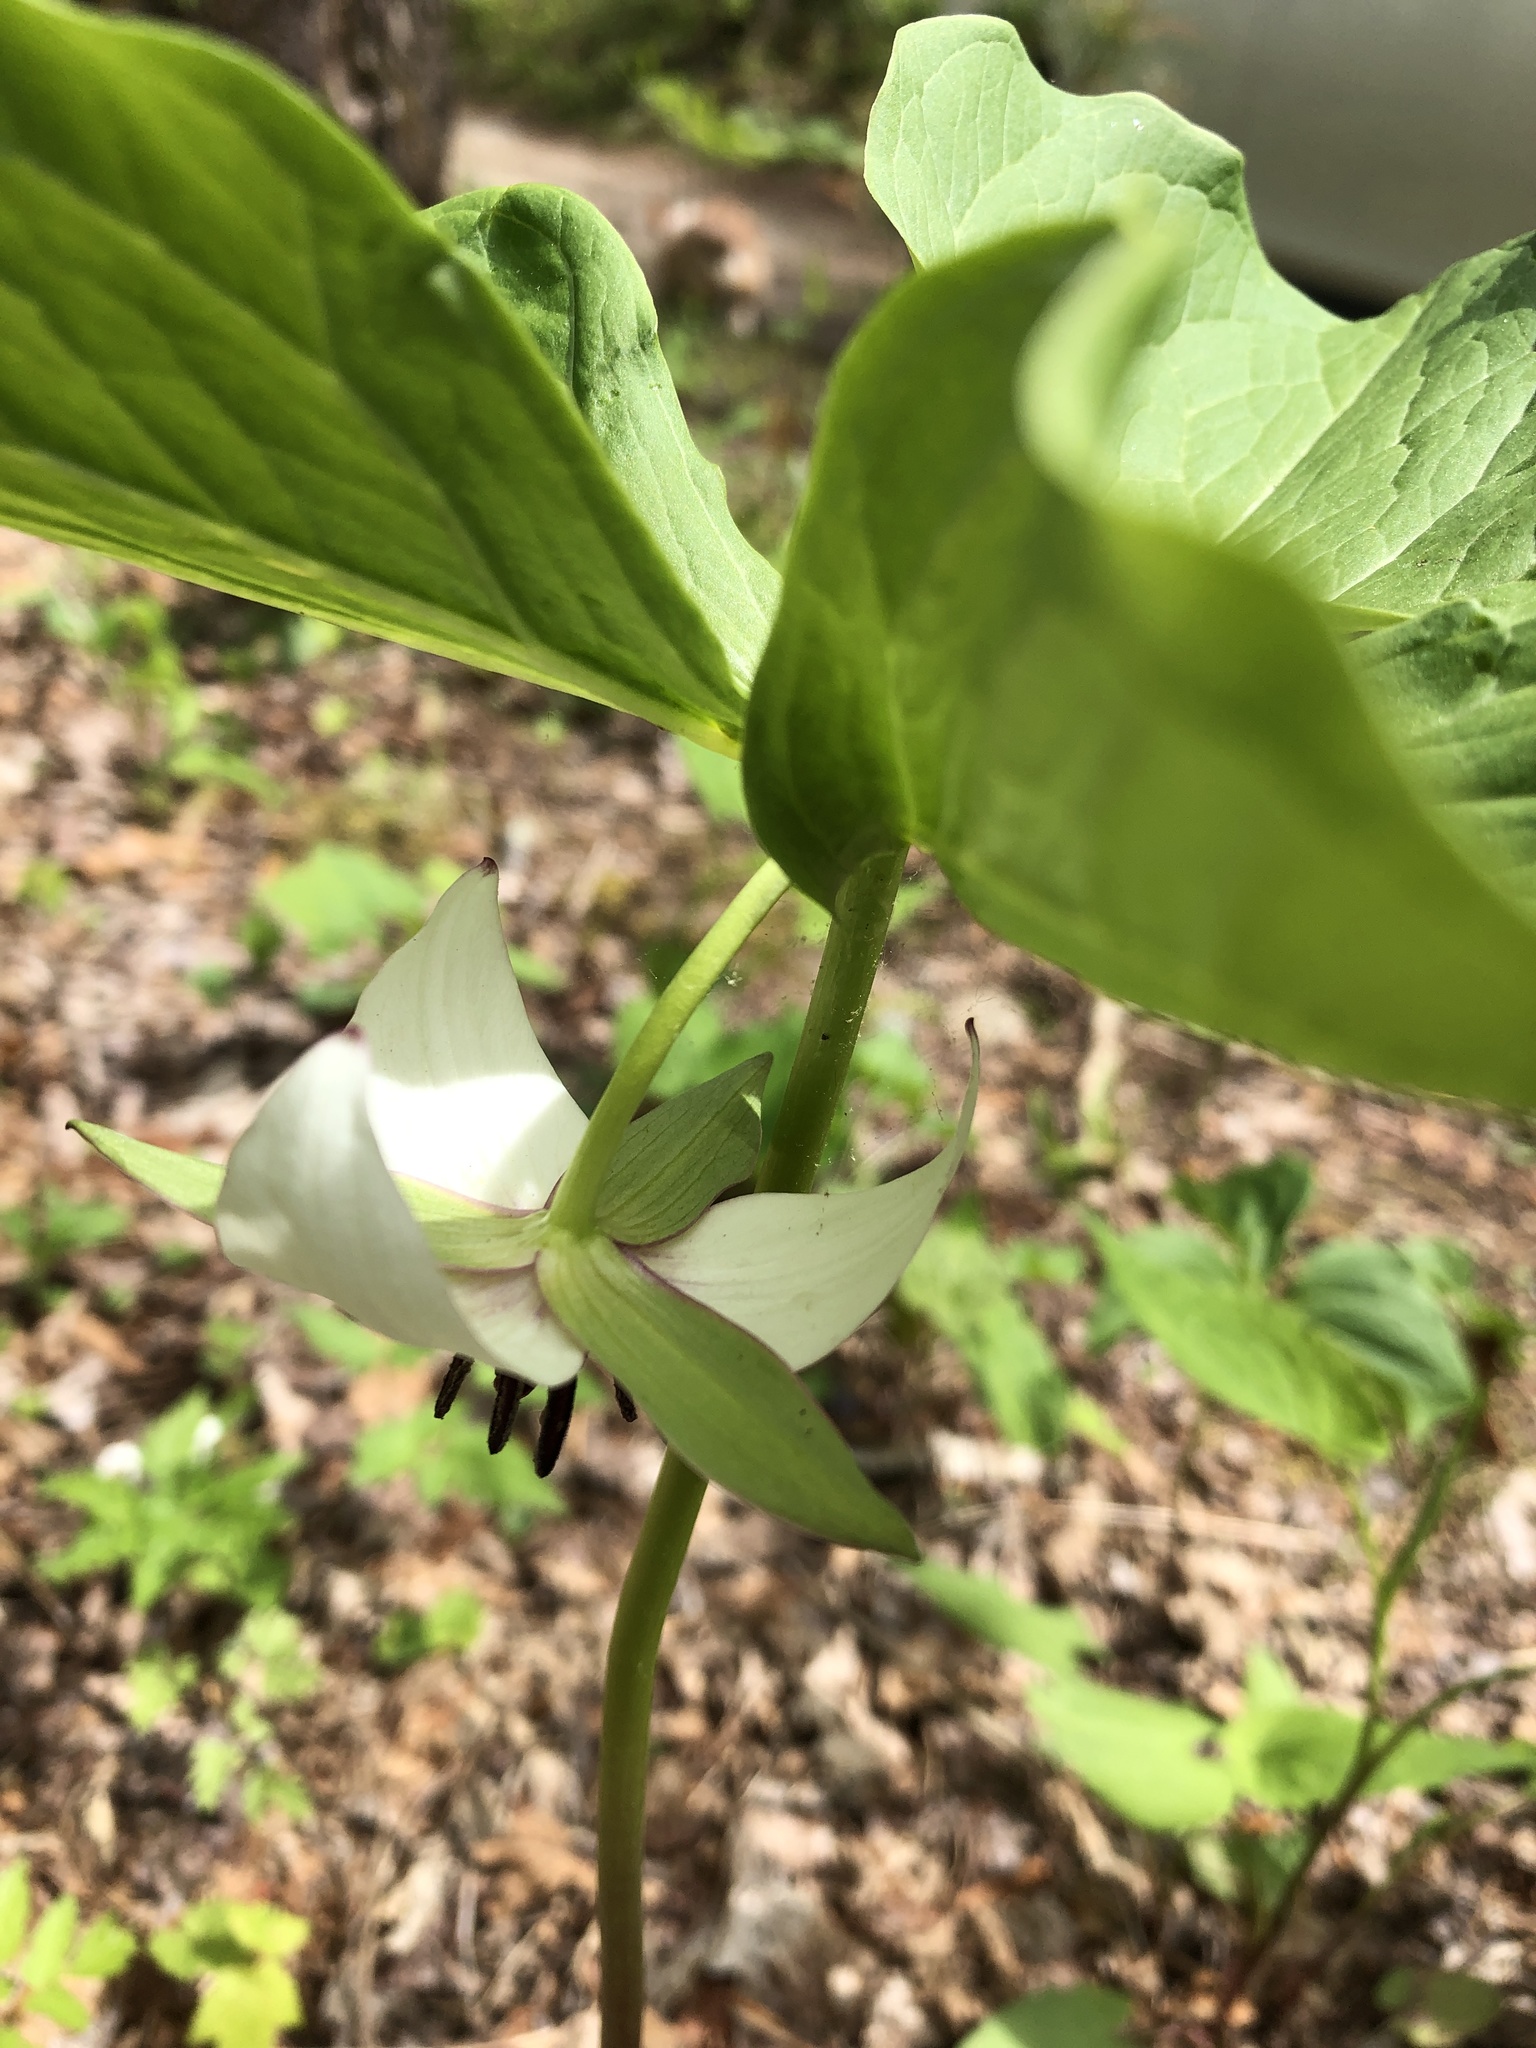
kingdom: Plantae
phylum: Tracheophyta
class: Liliopsida
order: Liliales
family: Melanthiaceae
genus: Trillium
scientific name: Trillium rugelii
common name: Ill-scented trillium
